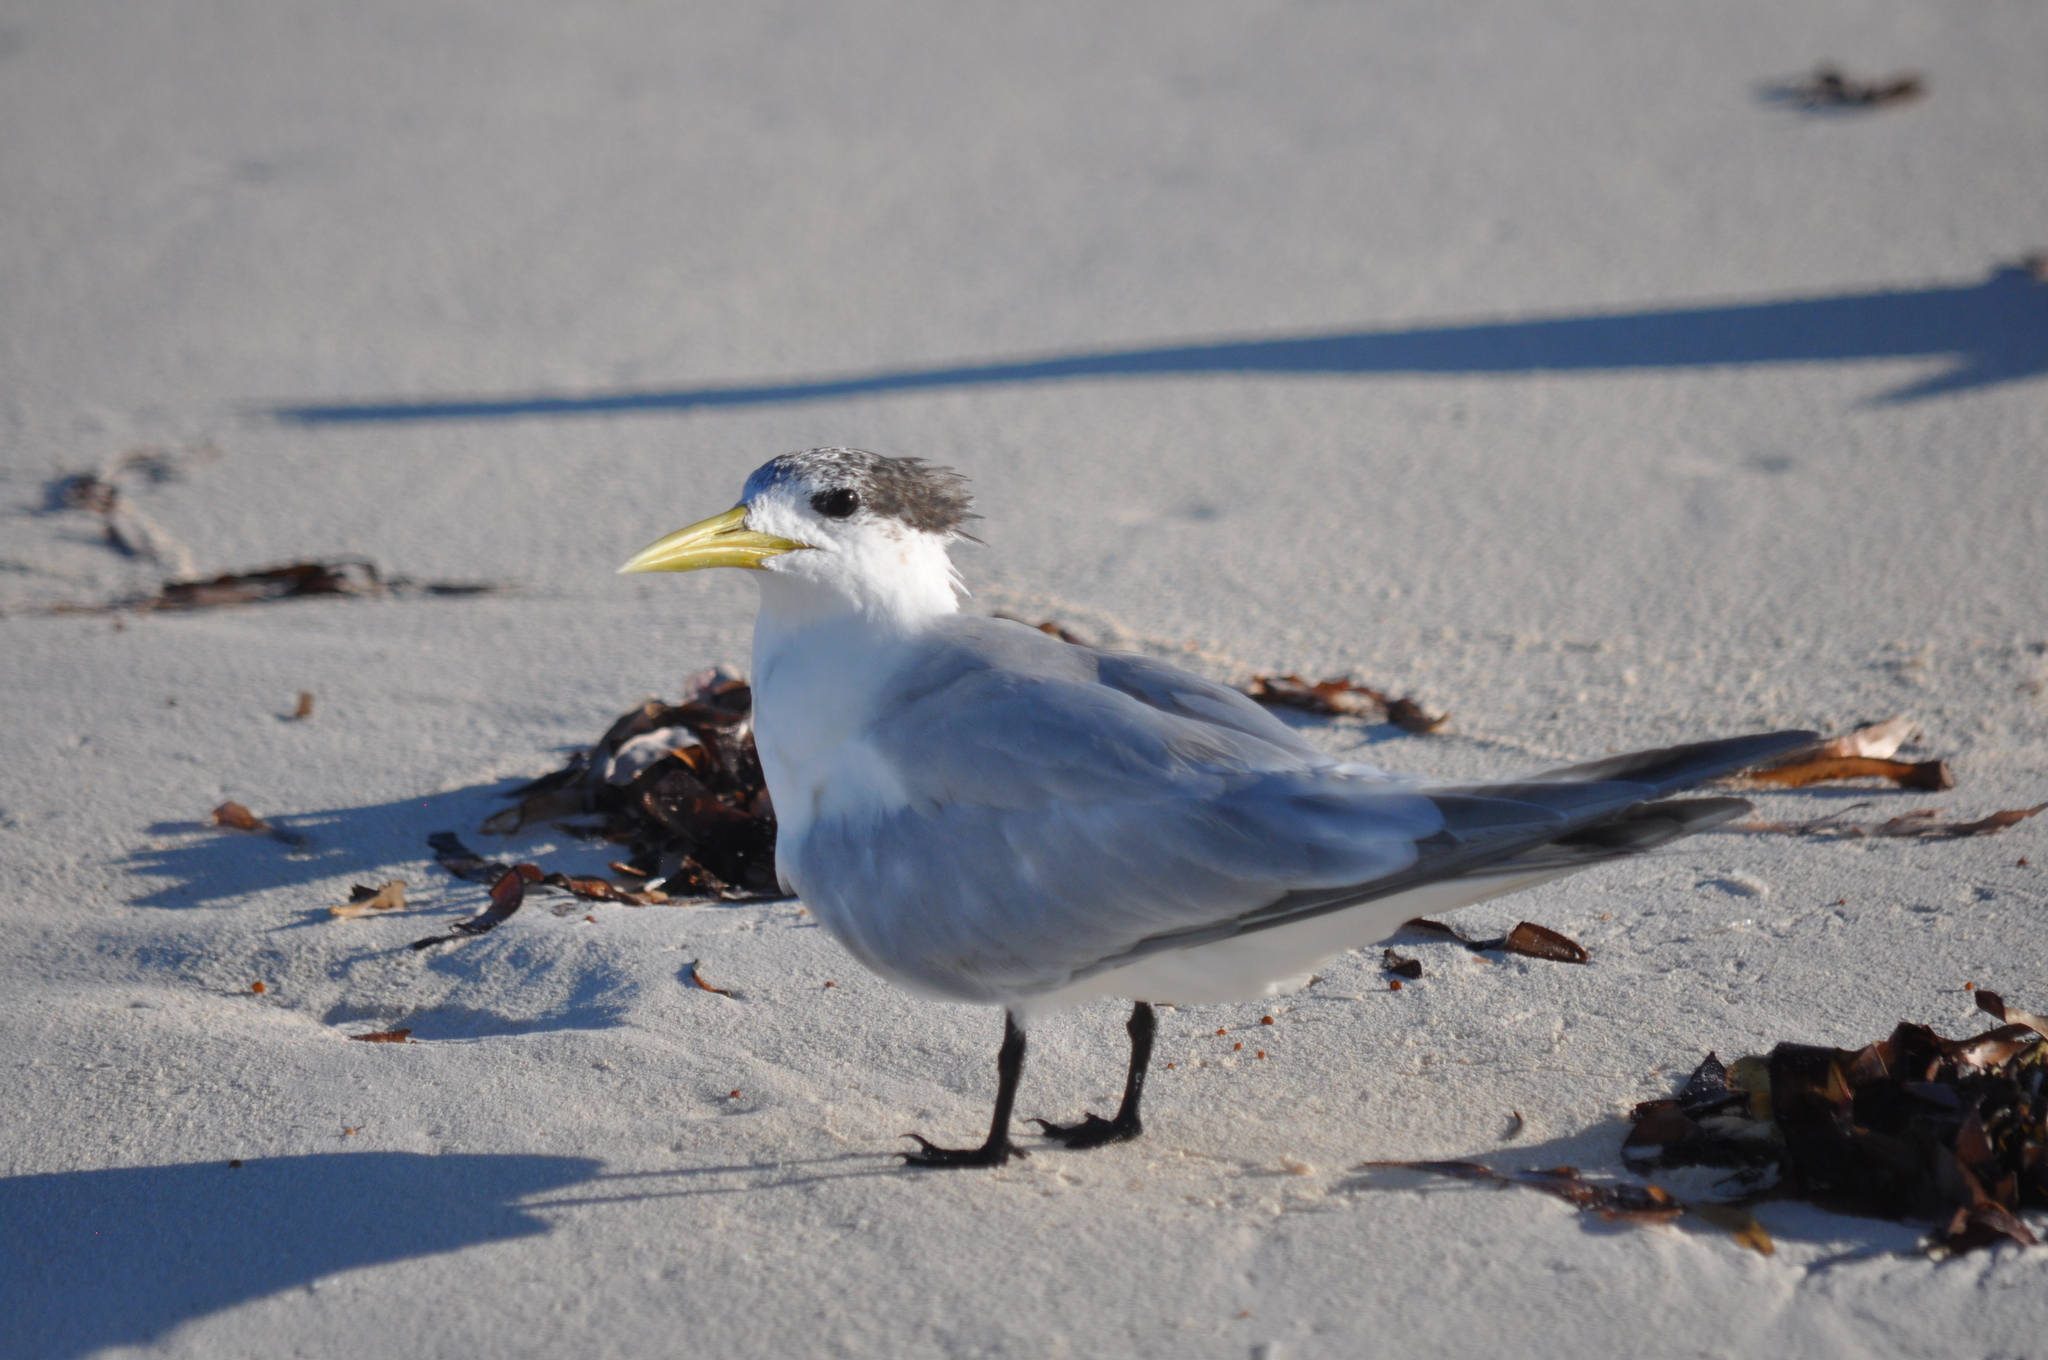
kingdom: Animalia
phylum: Chordata
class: Aves
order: Charadriiformes
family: Laridae
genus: Thalasseus
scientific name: Thalasseus bergii
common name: Greater crested tern
